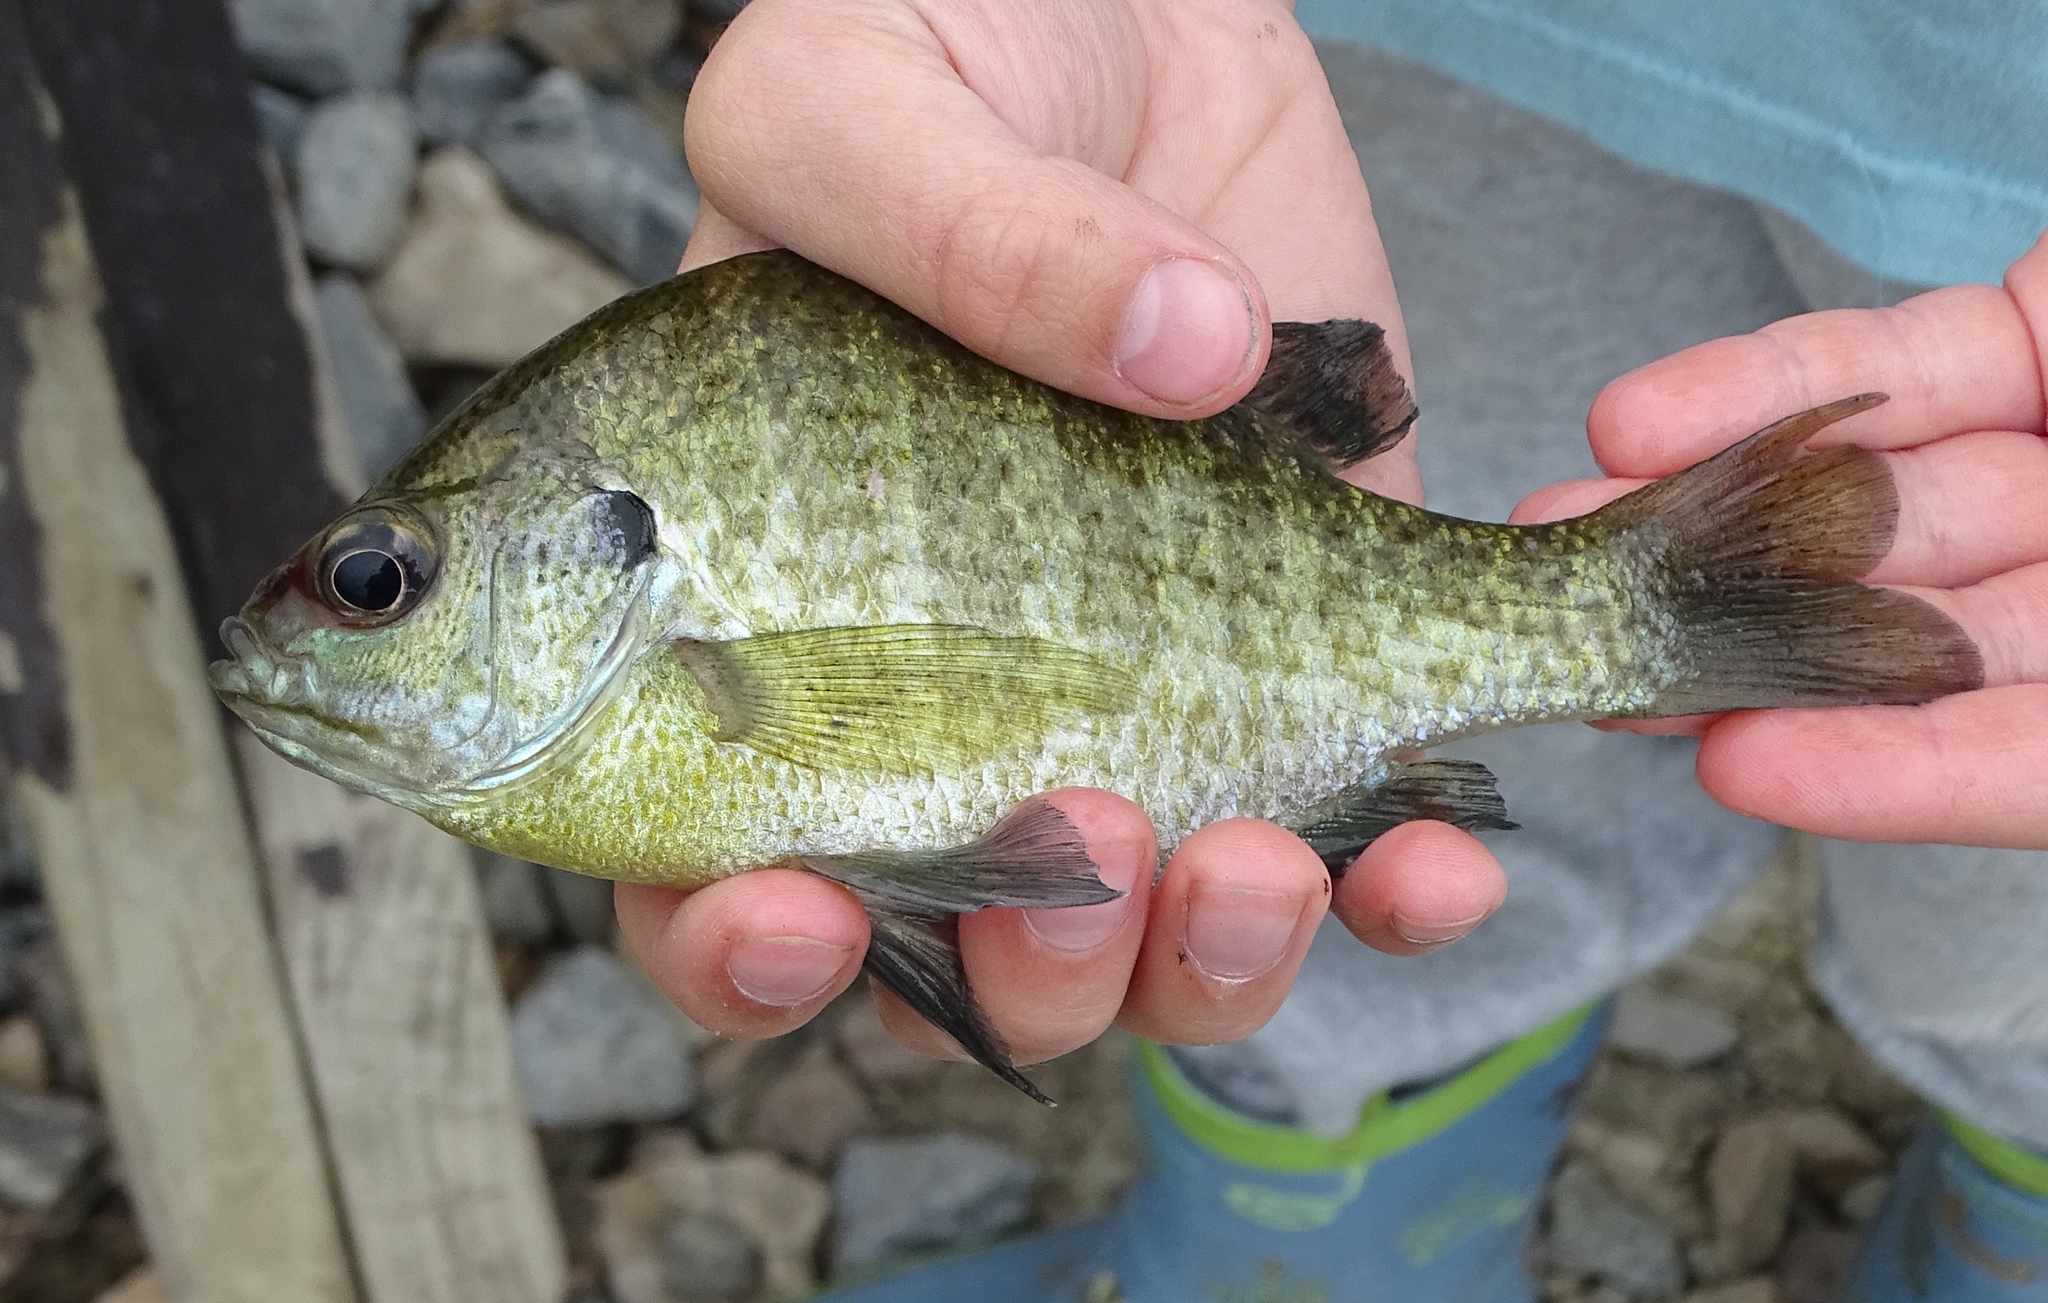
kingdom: Animalia
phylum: Chordata
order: Perciformes
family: Centrarchidae
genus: Lepomis
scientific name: Lepomis macrochirus
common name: Bluegill
